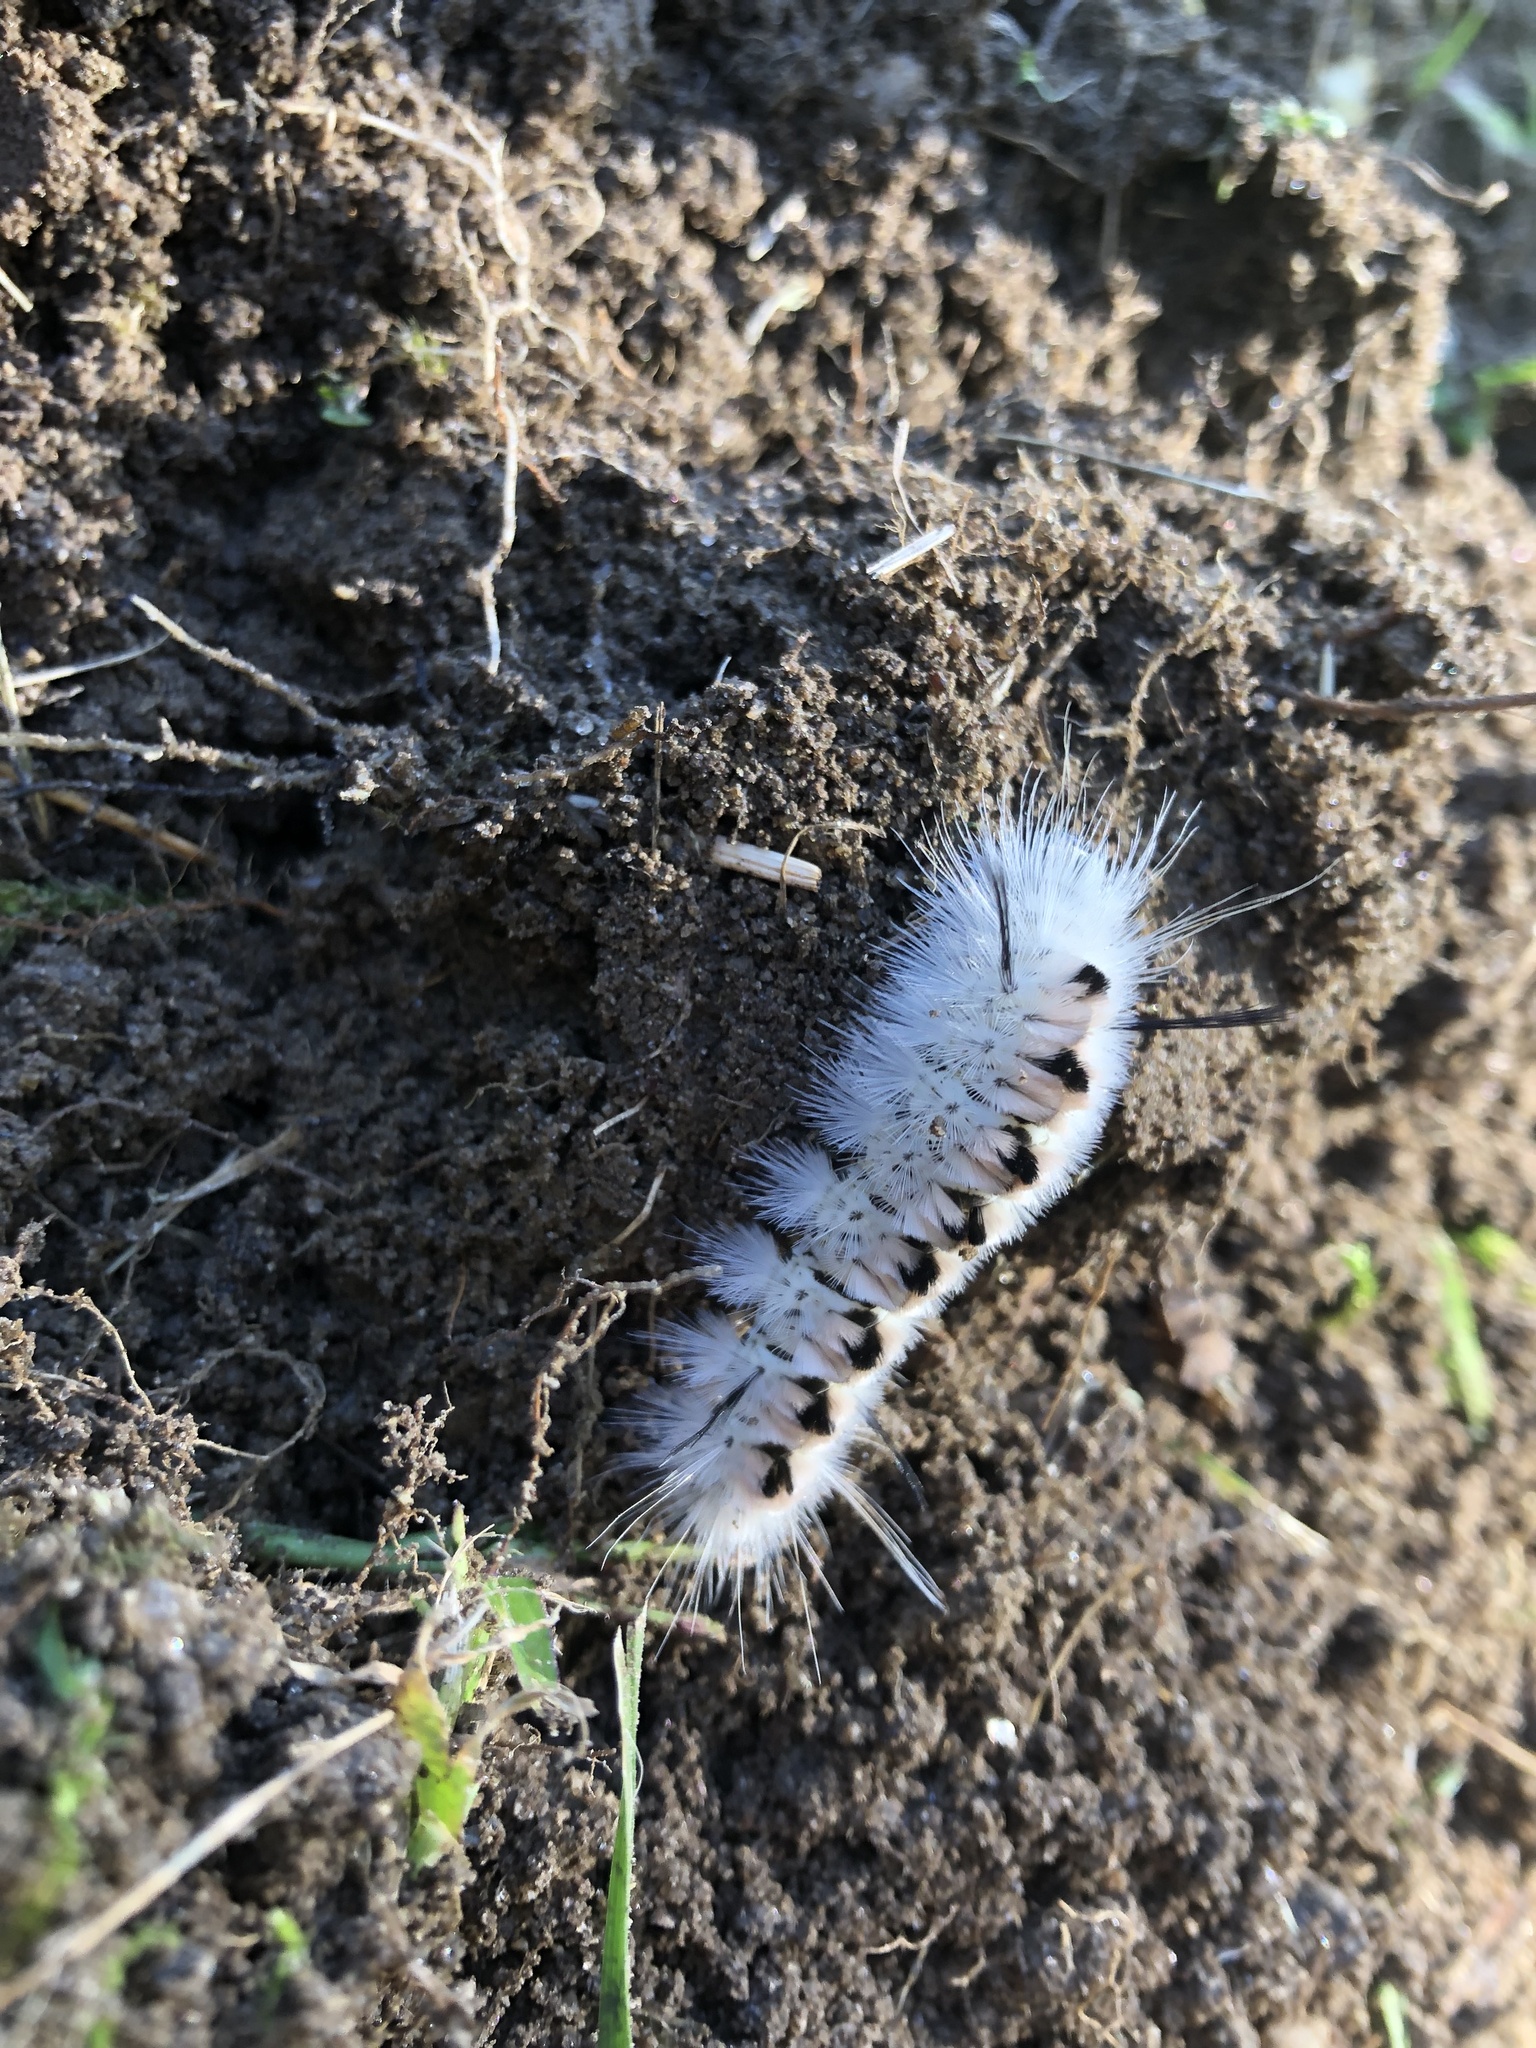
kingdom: Animalia
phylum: Arthropoda
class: Insecta
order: Lepidoptera
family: Erebidae
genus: Lophocampa
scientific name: Lophocampa caryae
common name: Hickory tussock moth
